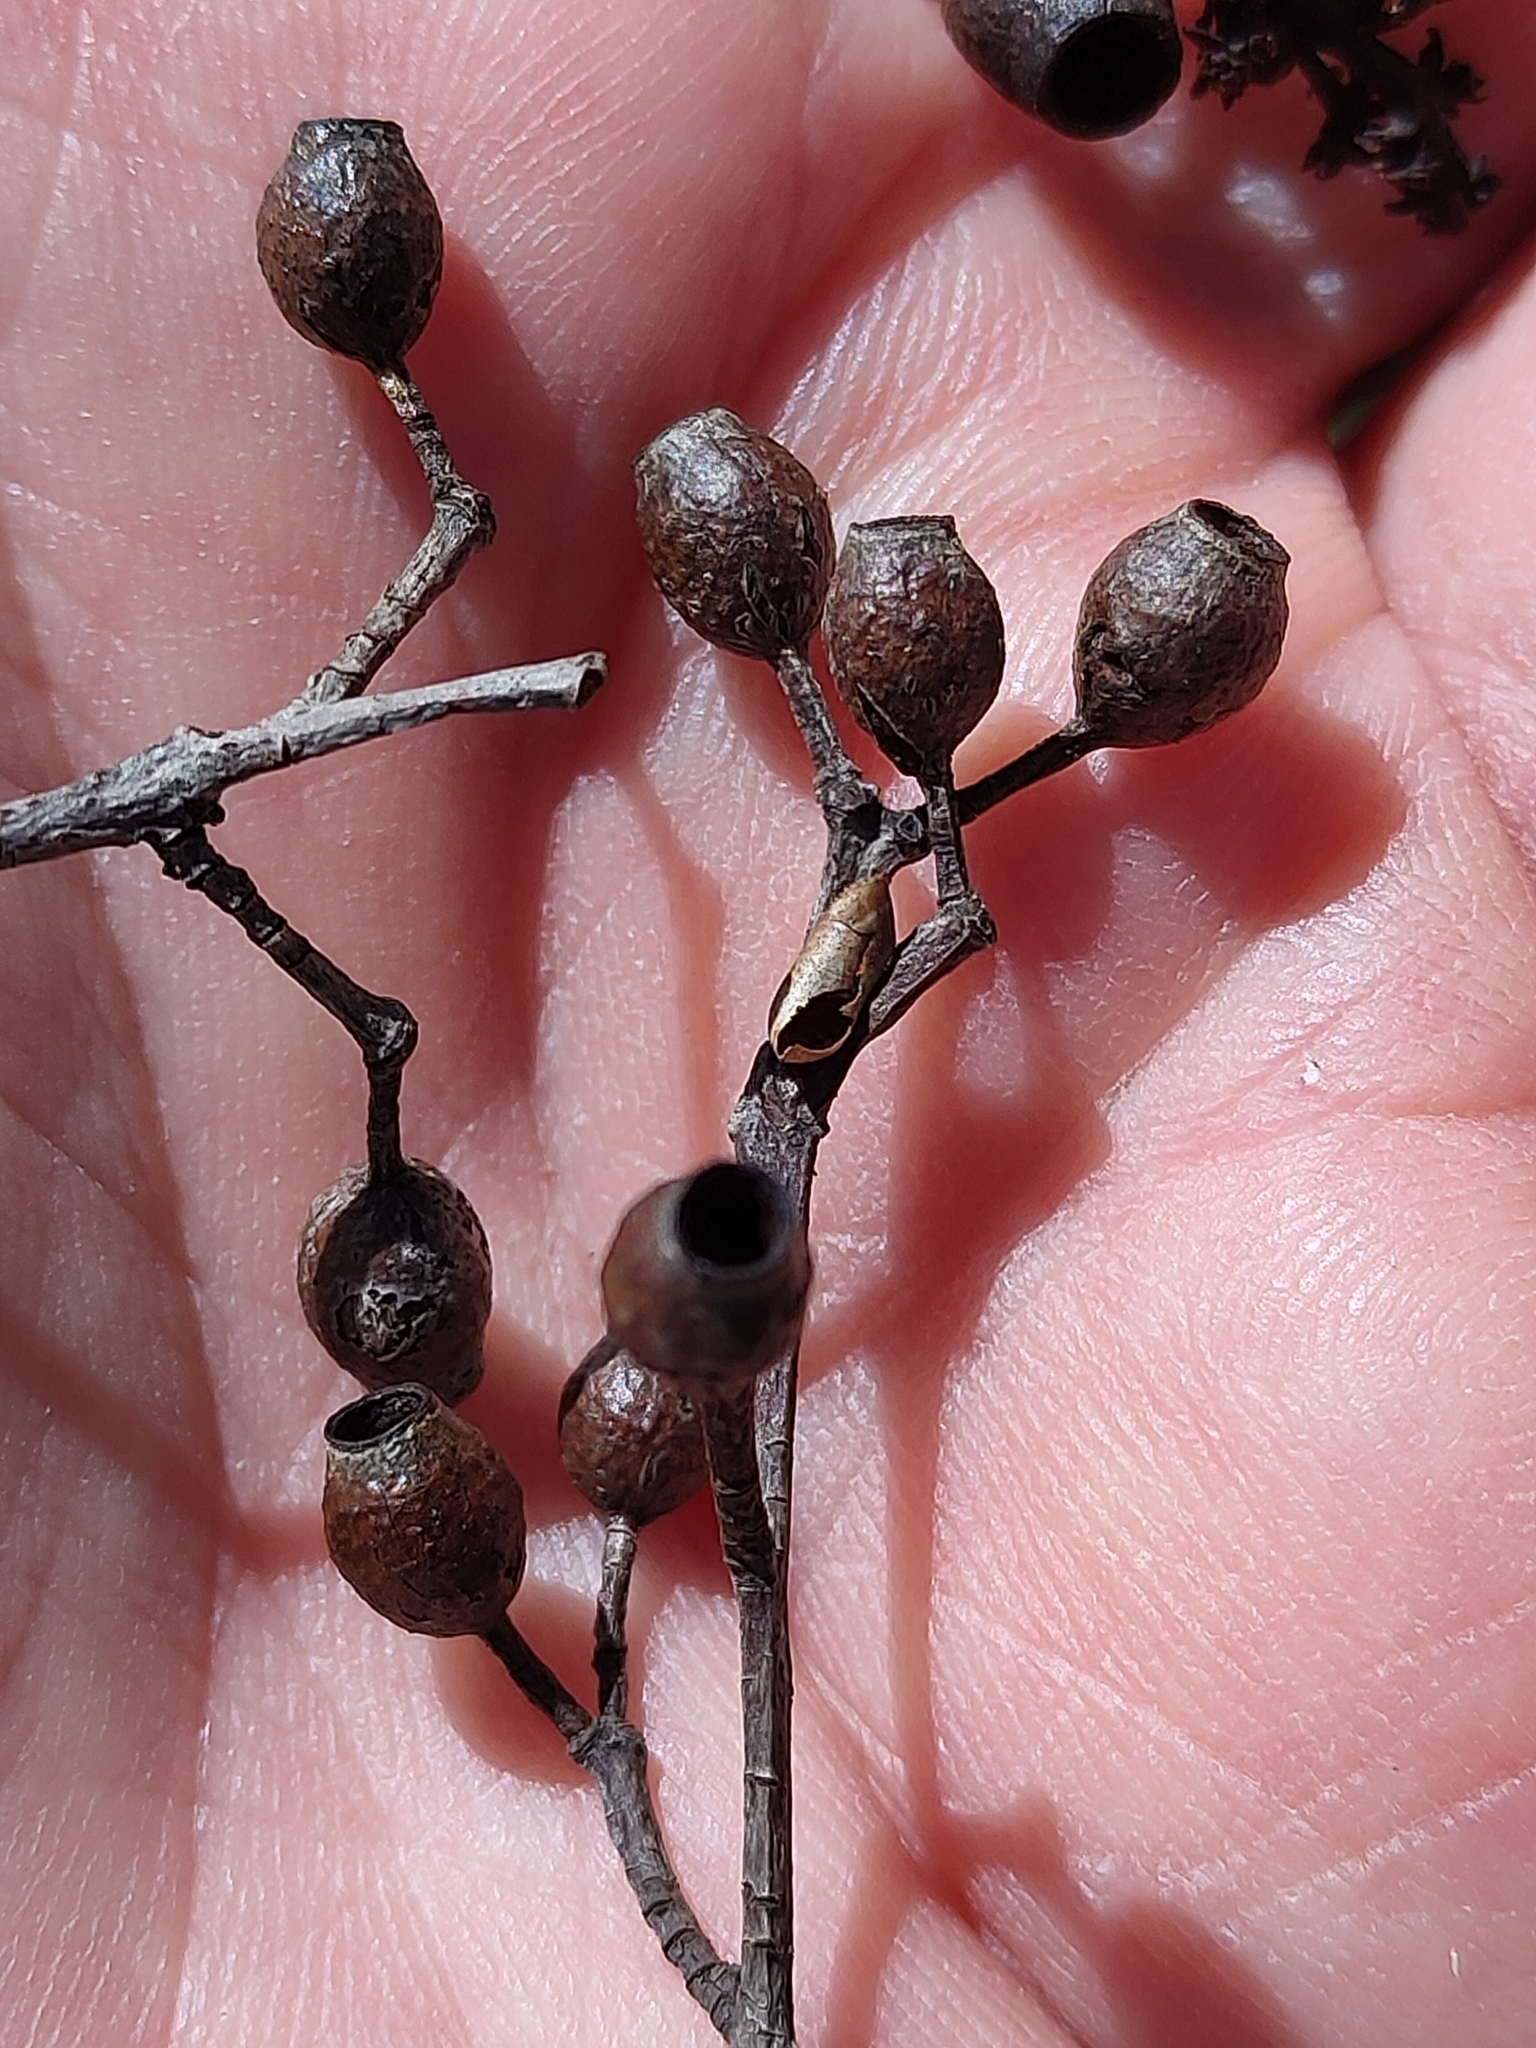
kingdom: Plantae
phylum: Tracheophyta
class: Magnoliopsida
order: Myrtales
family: Myrtaceae
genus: Corymbia
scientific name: Corymbia trachyphloia
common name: Brown-bloodwood
